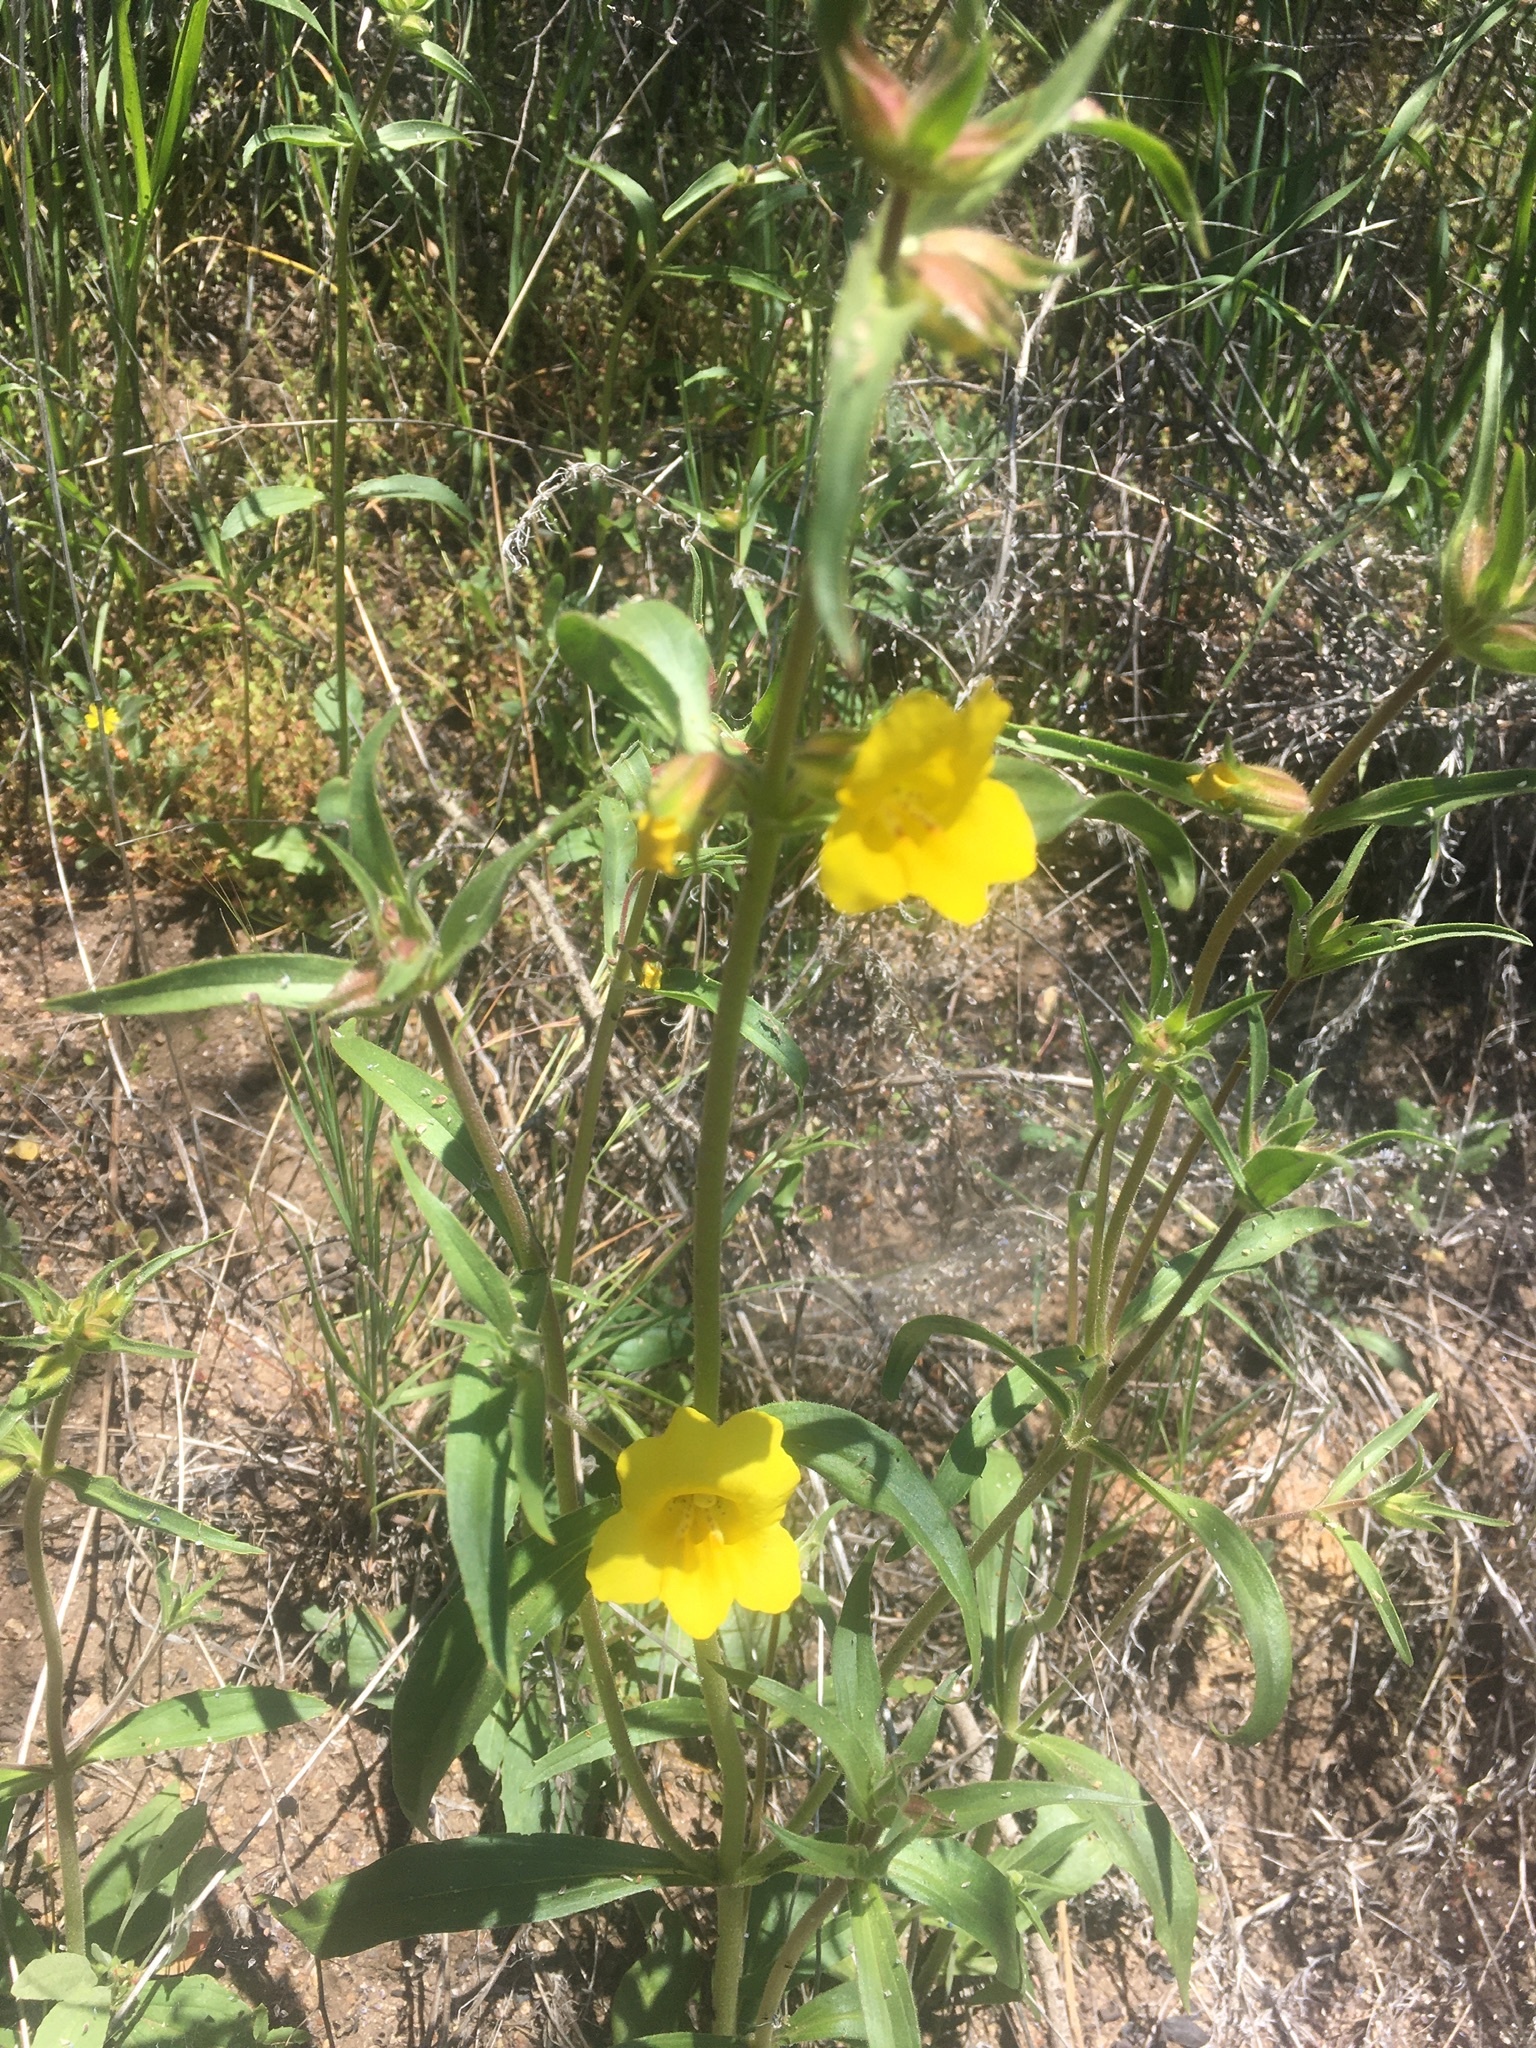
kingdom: Plantae
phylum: Tracheophyta
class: Magnoliopsida
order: Lamiales
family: Phrymaceae
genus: Diplacus
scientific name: Diplacus brevipes
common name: Wide-throat yellow monkey-flower
